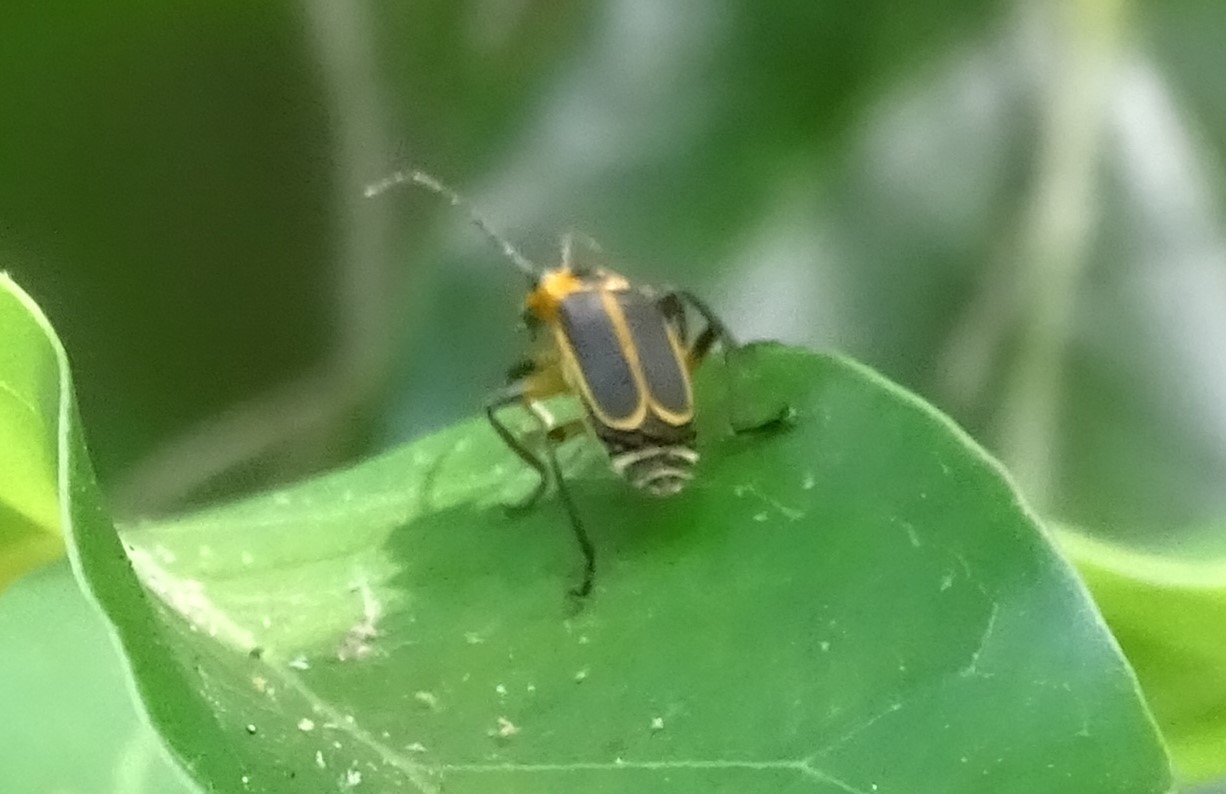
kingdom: Animalia
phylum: Arthropoda
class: Insecta
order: Coleoptera
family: Cantharidae
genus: Chauliognathus
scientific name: Chauliognathus marginatus
